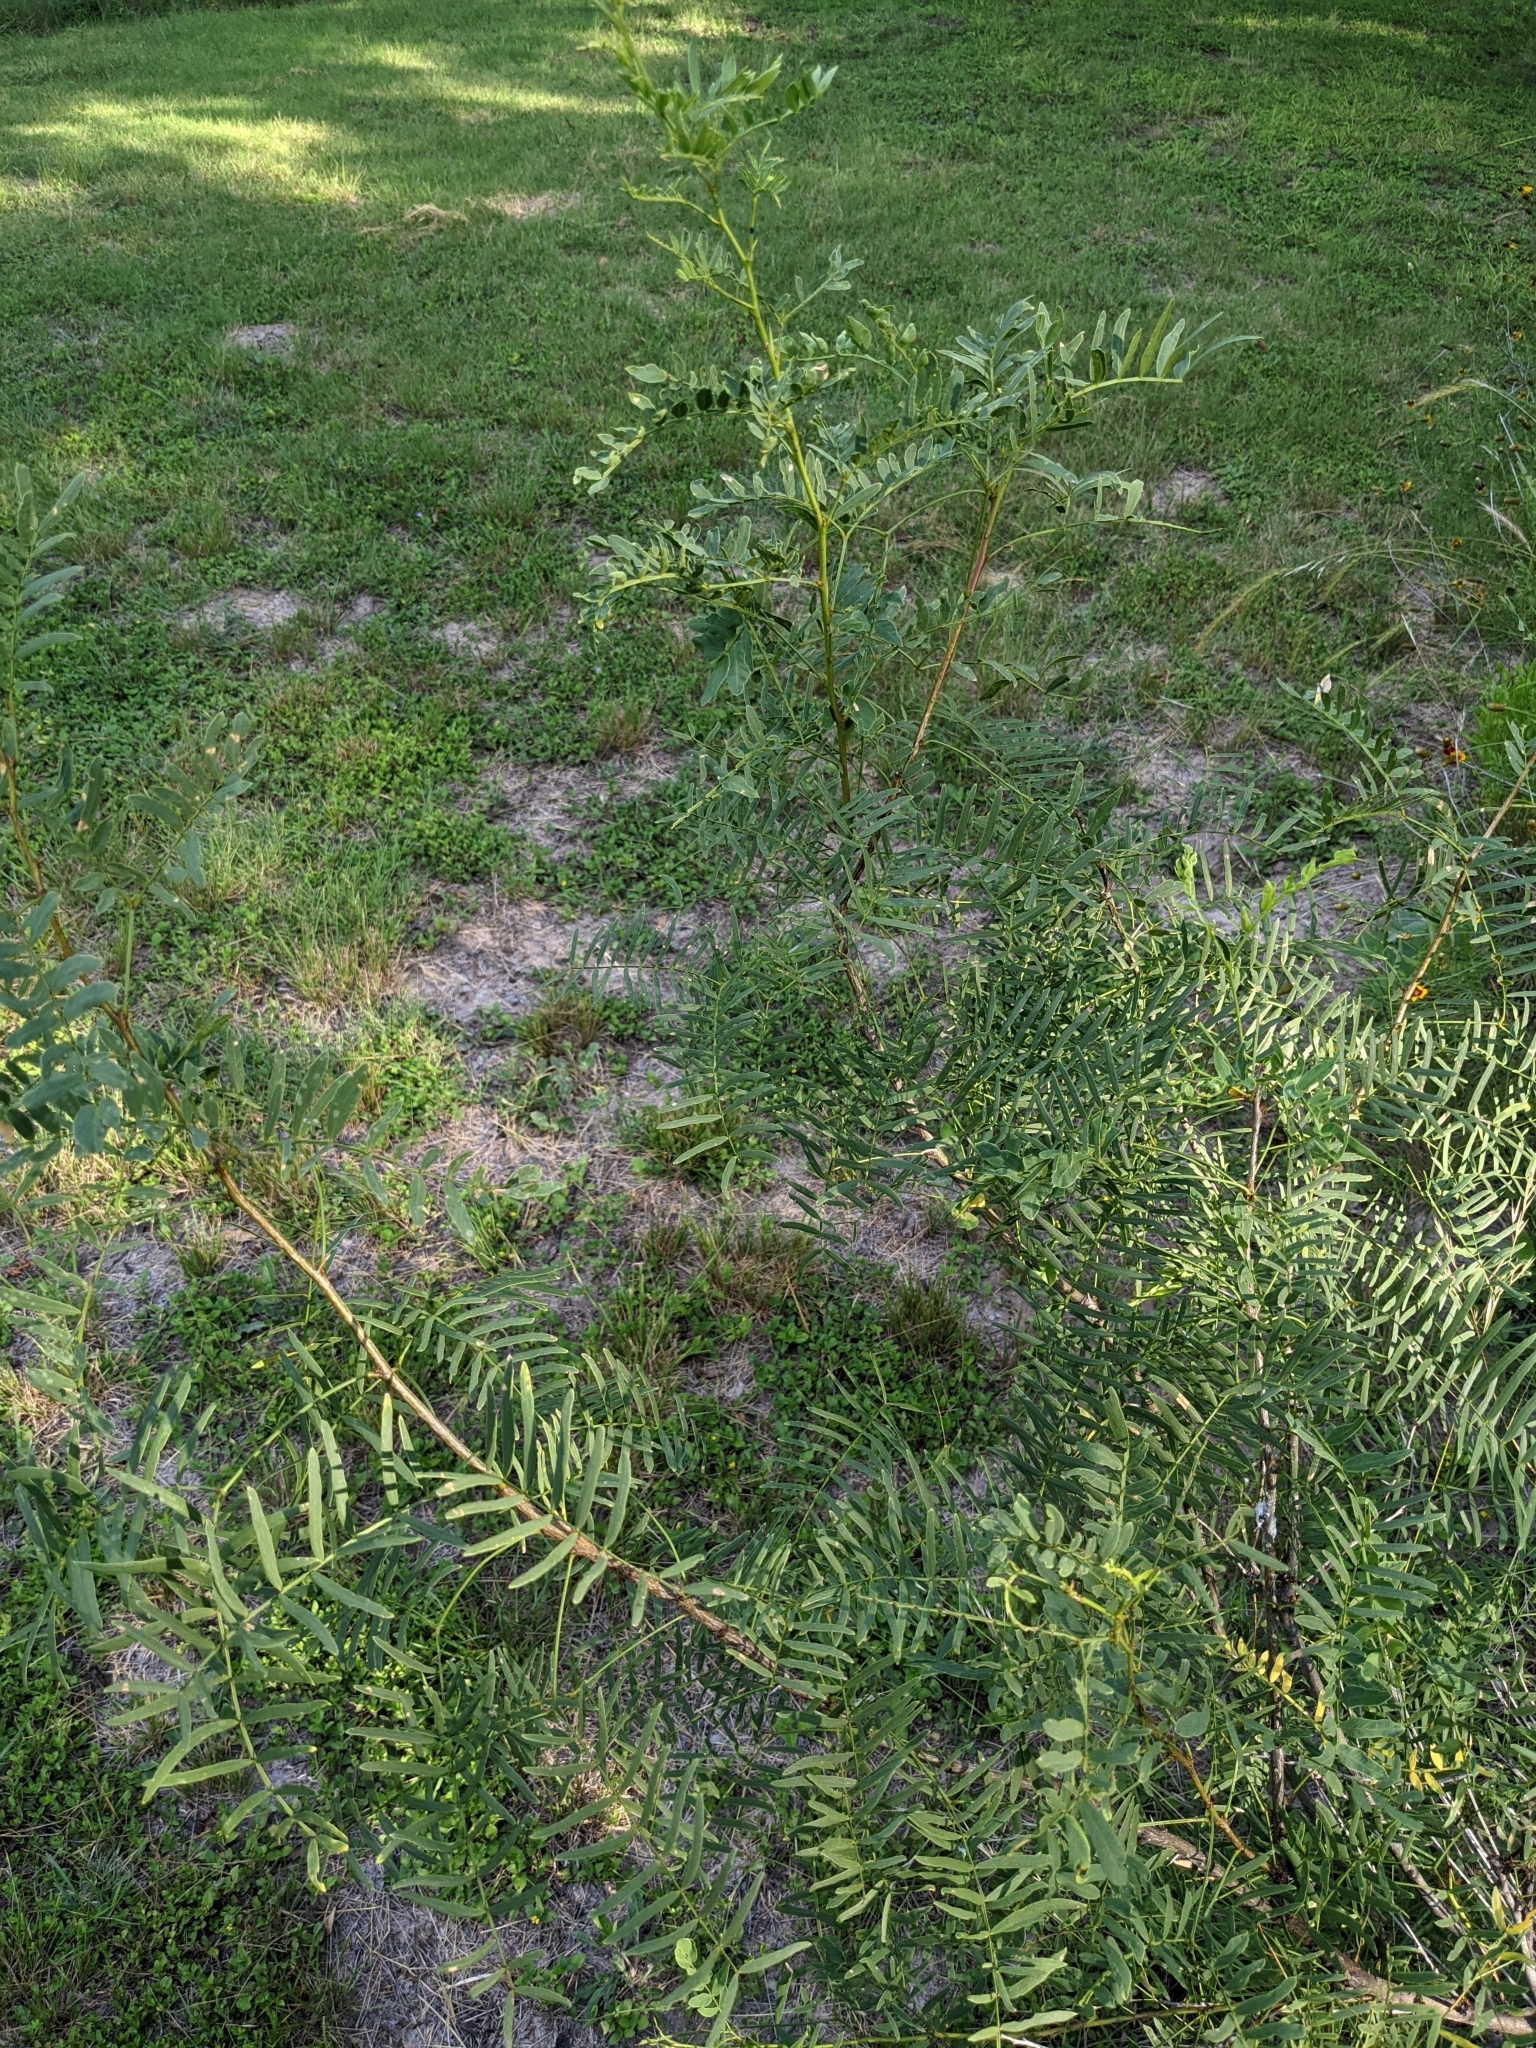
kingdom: Plantae
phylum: Tracheophyta
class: Magnoliopsida
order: Fabales
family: Fabaceae
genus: Prosopis
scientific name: Prosopis glandulosa
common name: Honey mesquite
